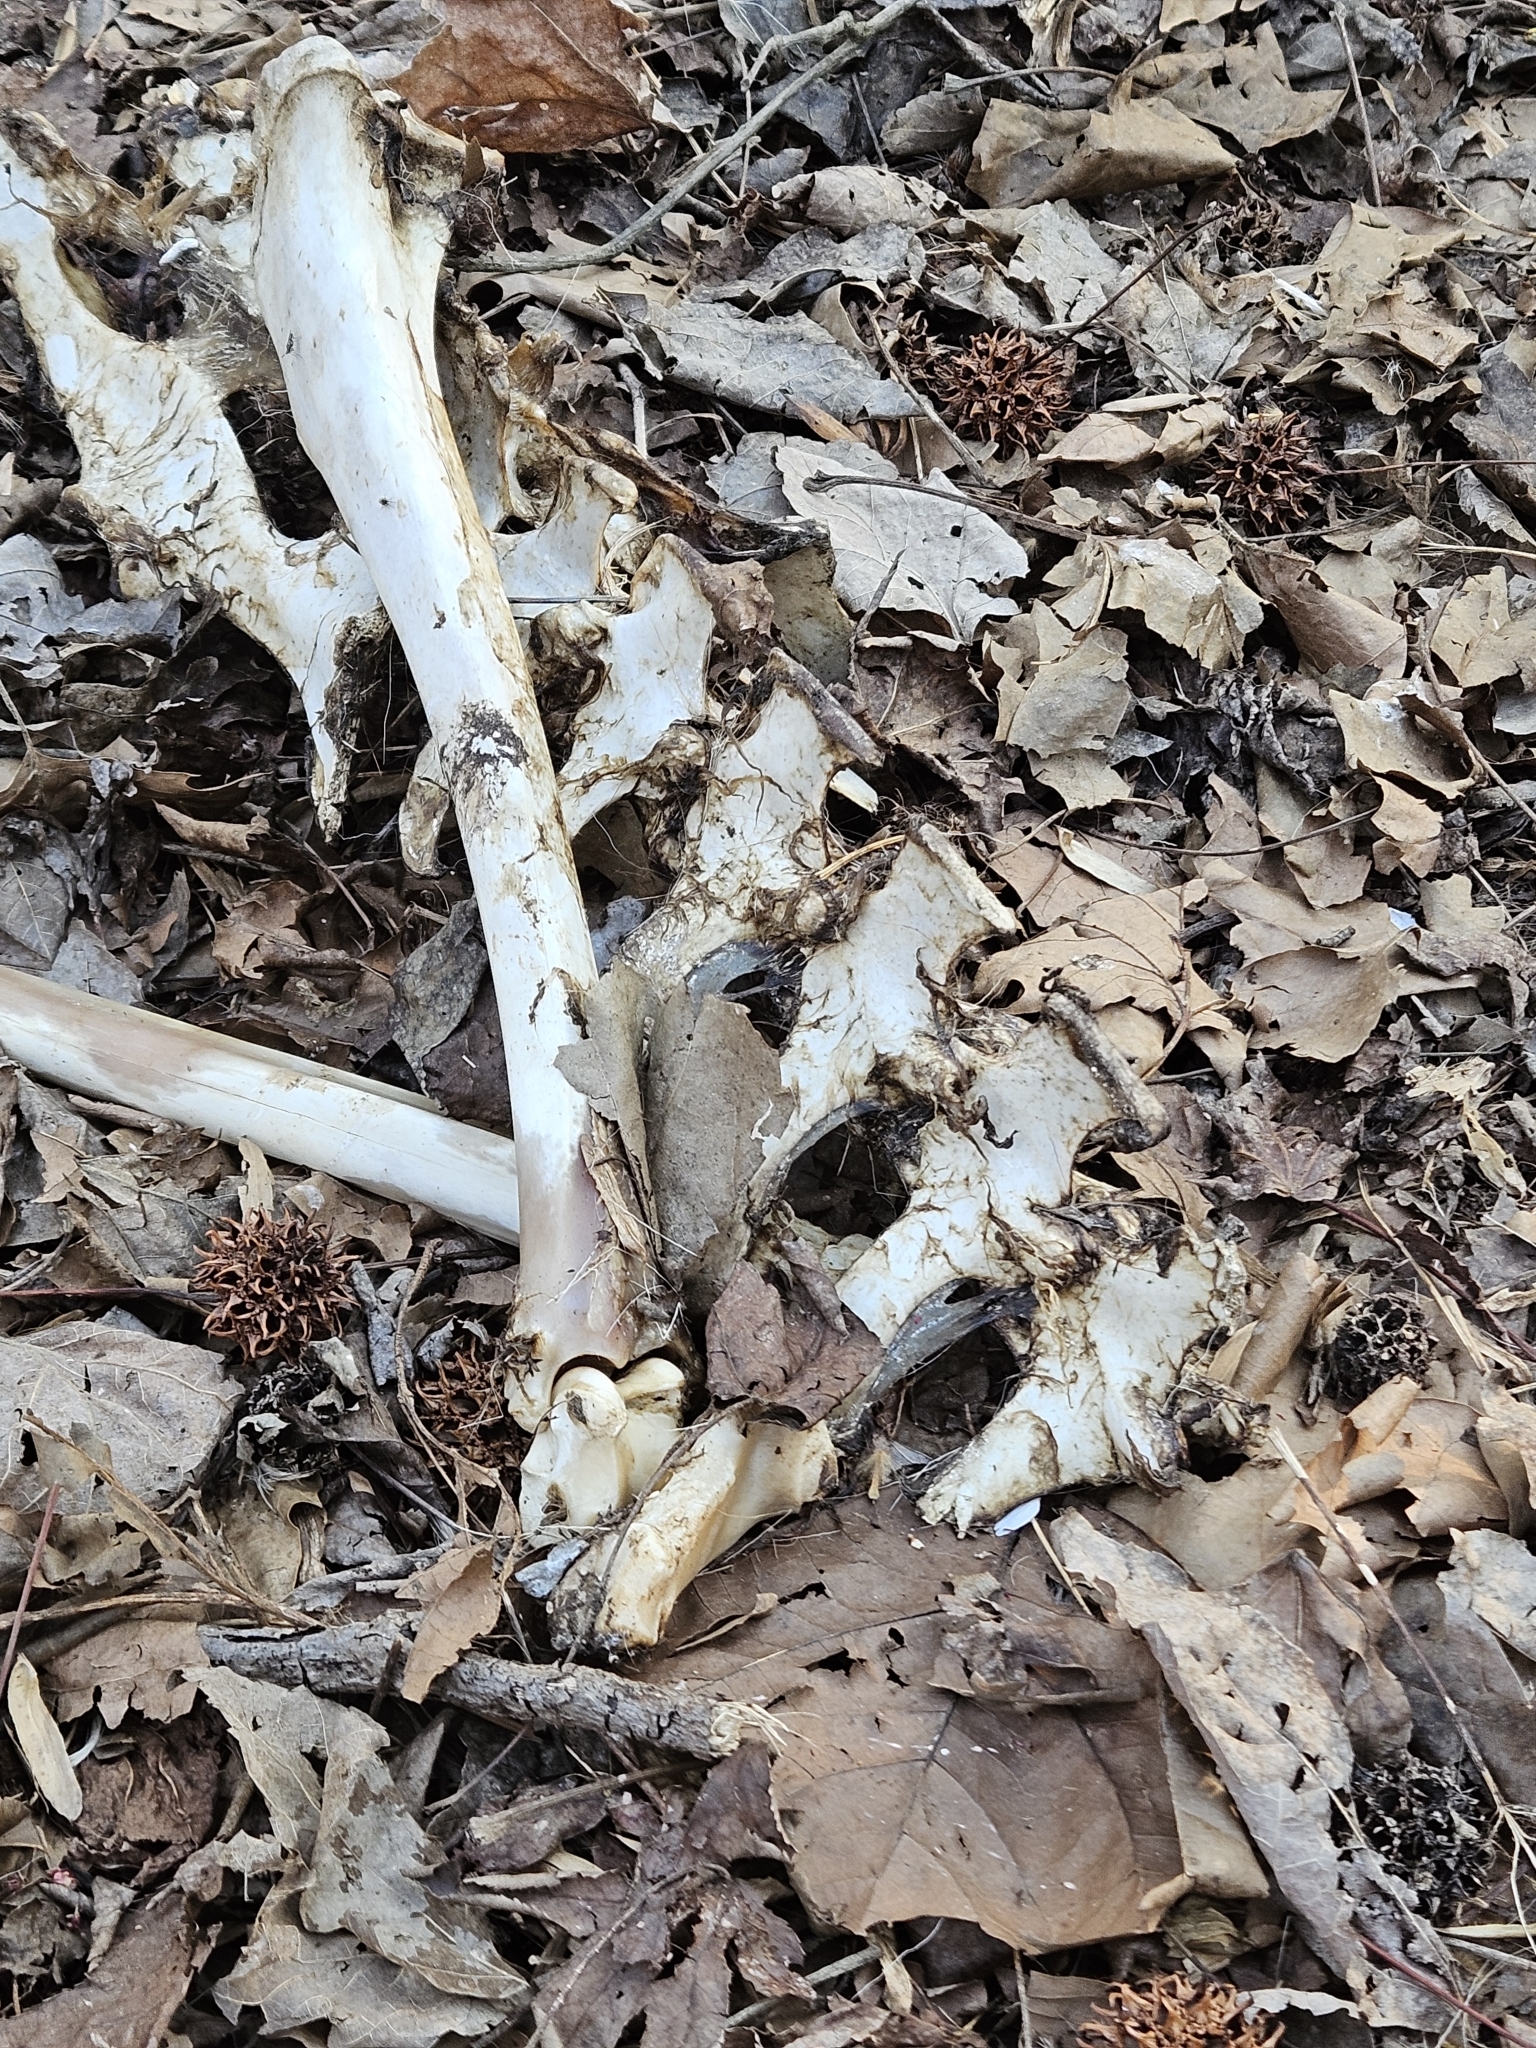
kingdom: Animalia
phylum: Chordata
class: Mammalia
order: Artiodactyla
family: Cervidae
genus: Odocoileus
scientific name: Odocoileus virginianus
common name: White-tailed deer
